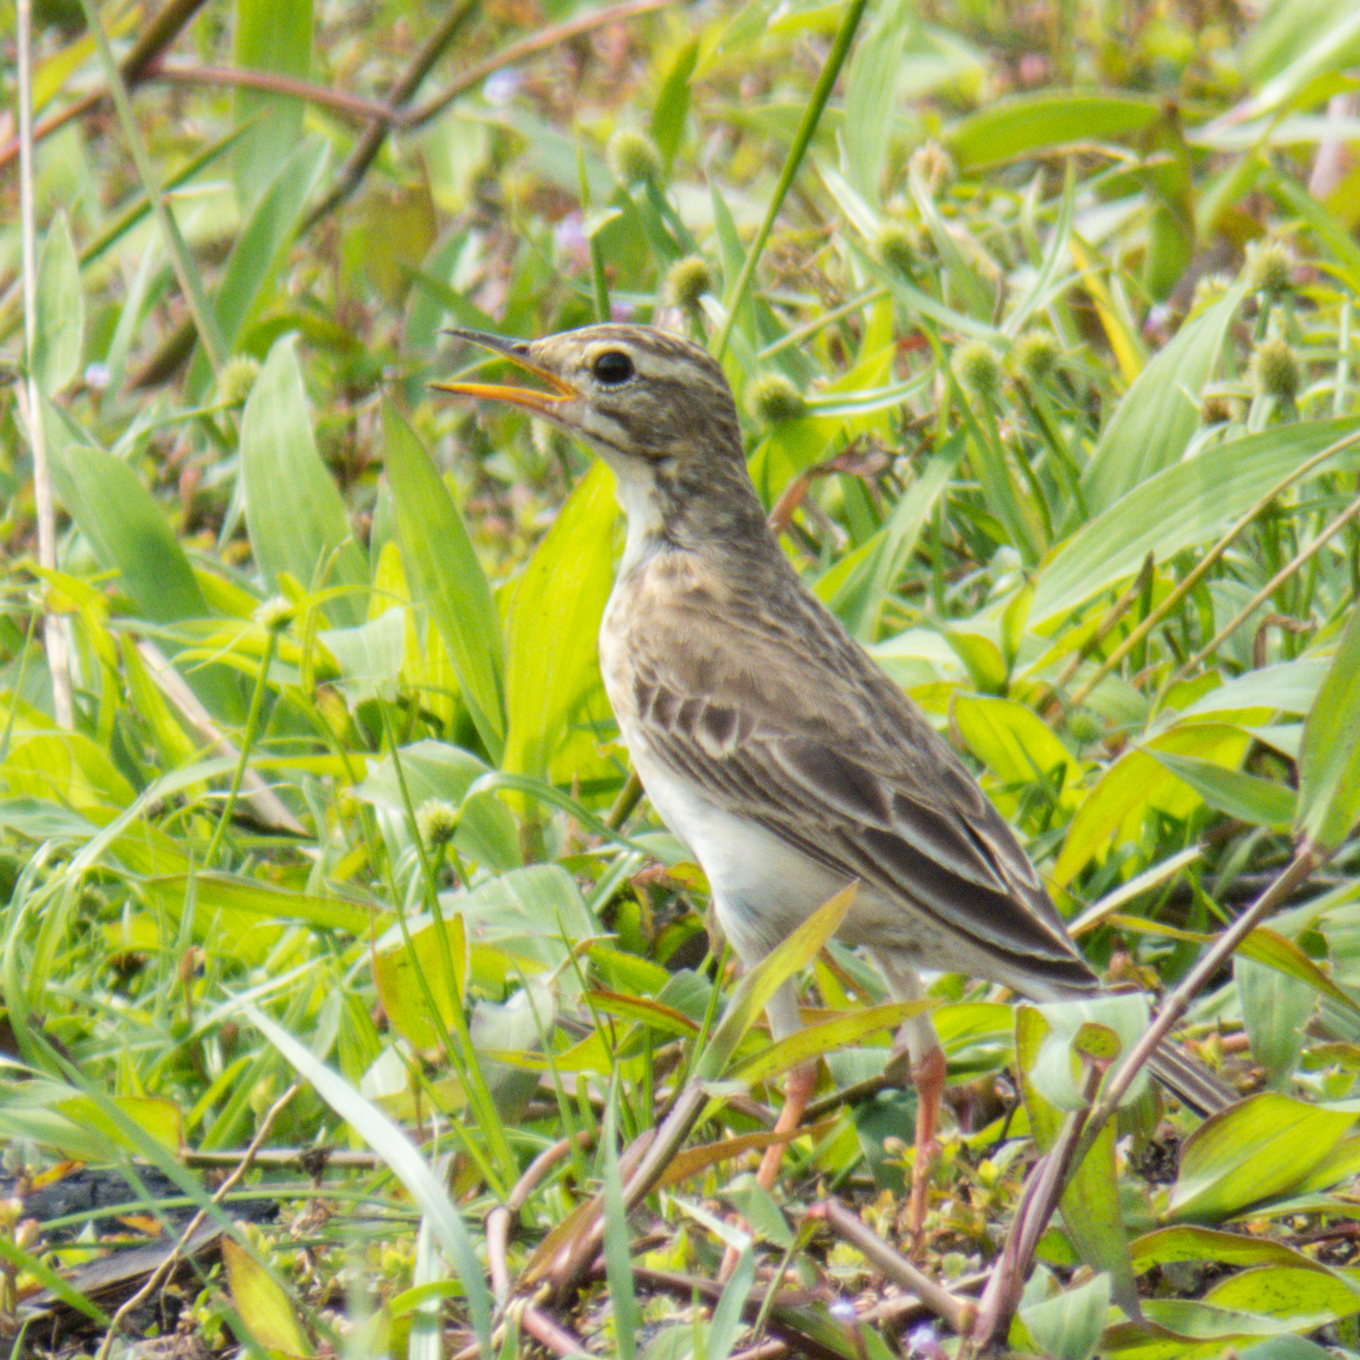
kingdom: Animalia
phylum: Chordata
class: Aves
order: Passeriformes
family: Motacillidae
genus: Anthus
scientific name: Anthus rufulus
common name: Paddyfield pipit
